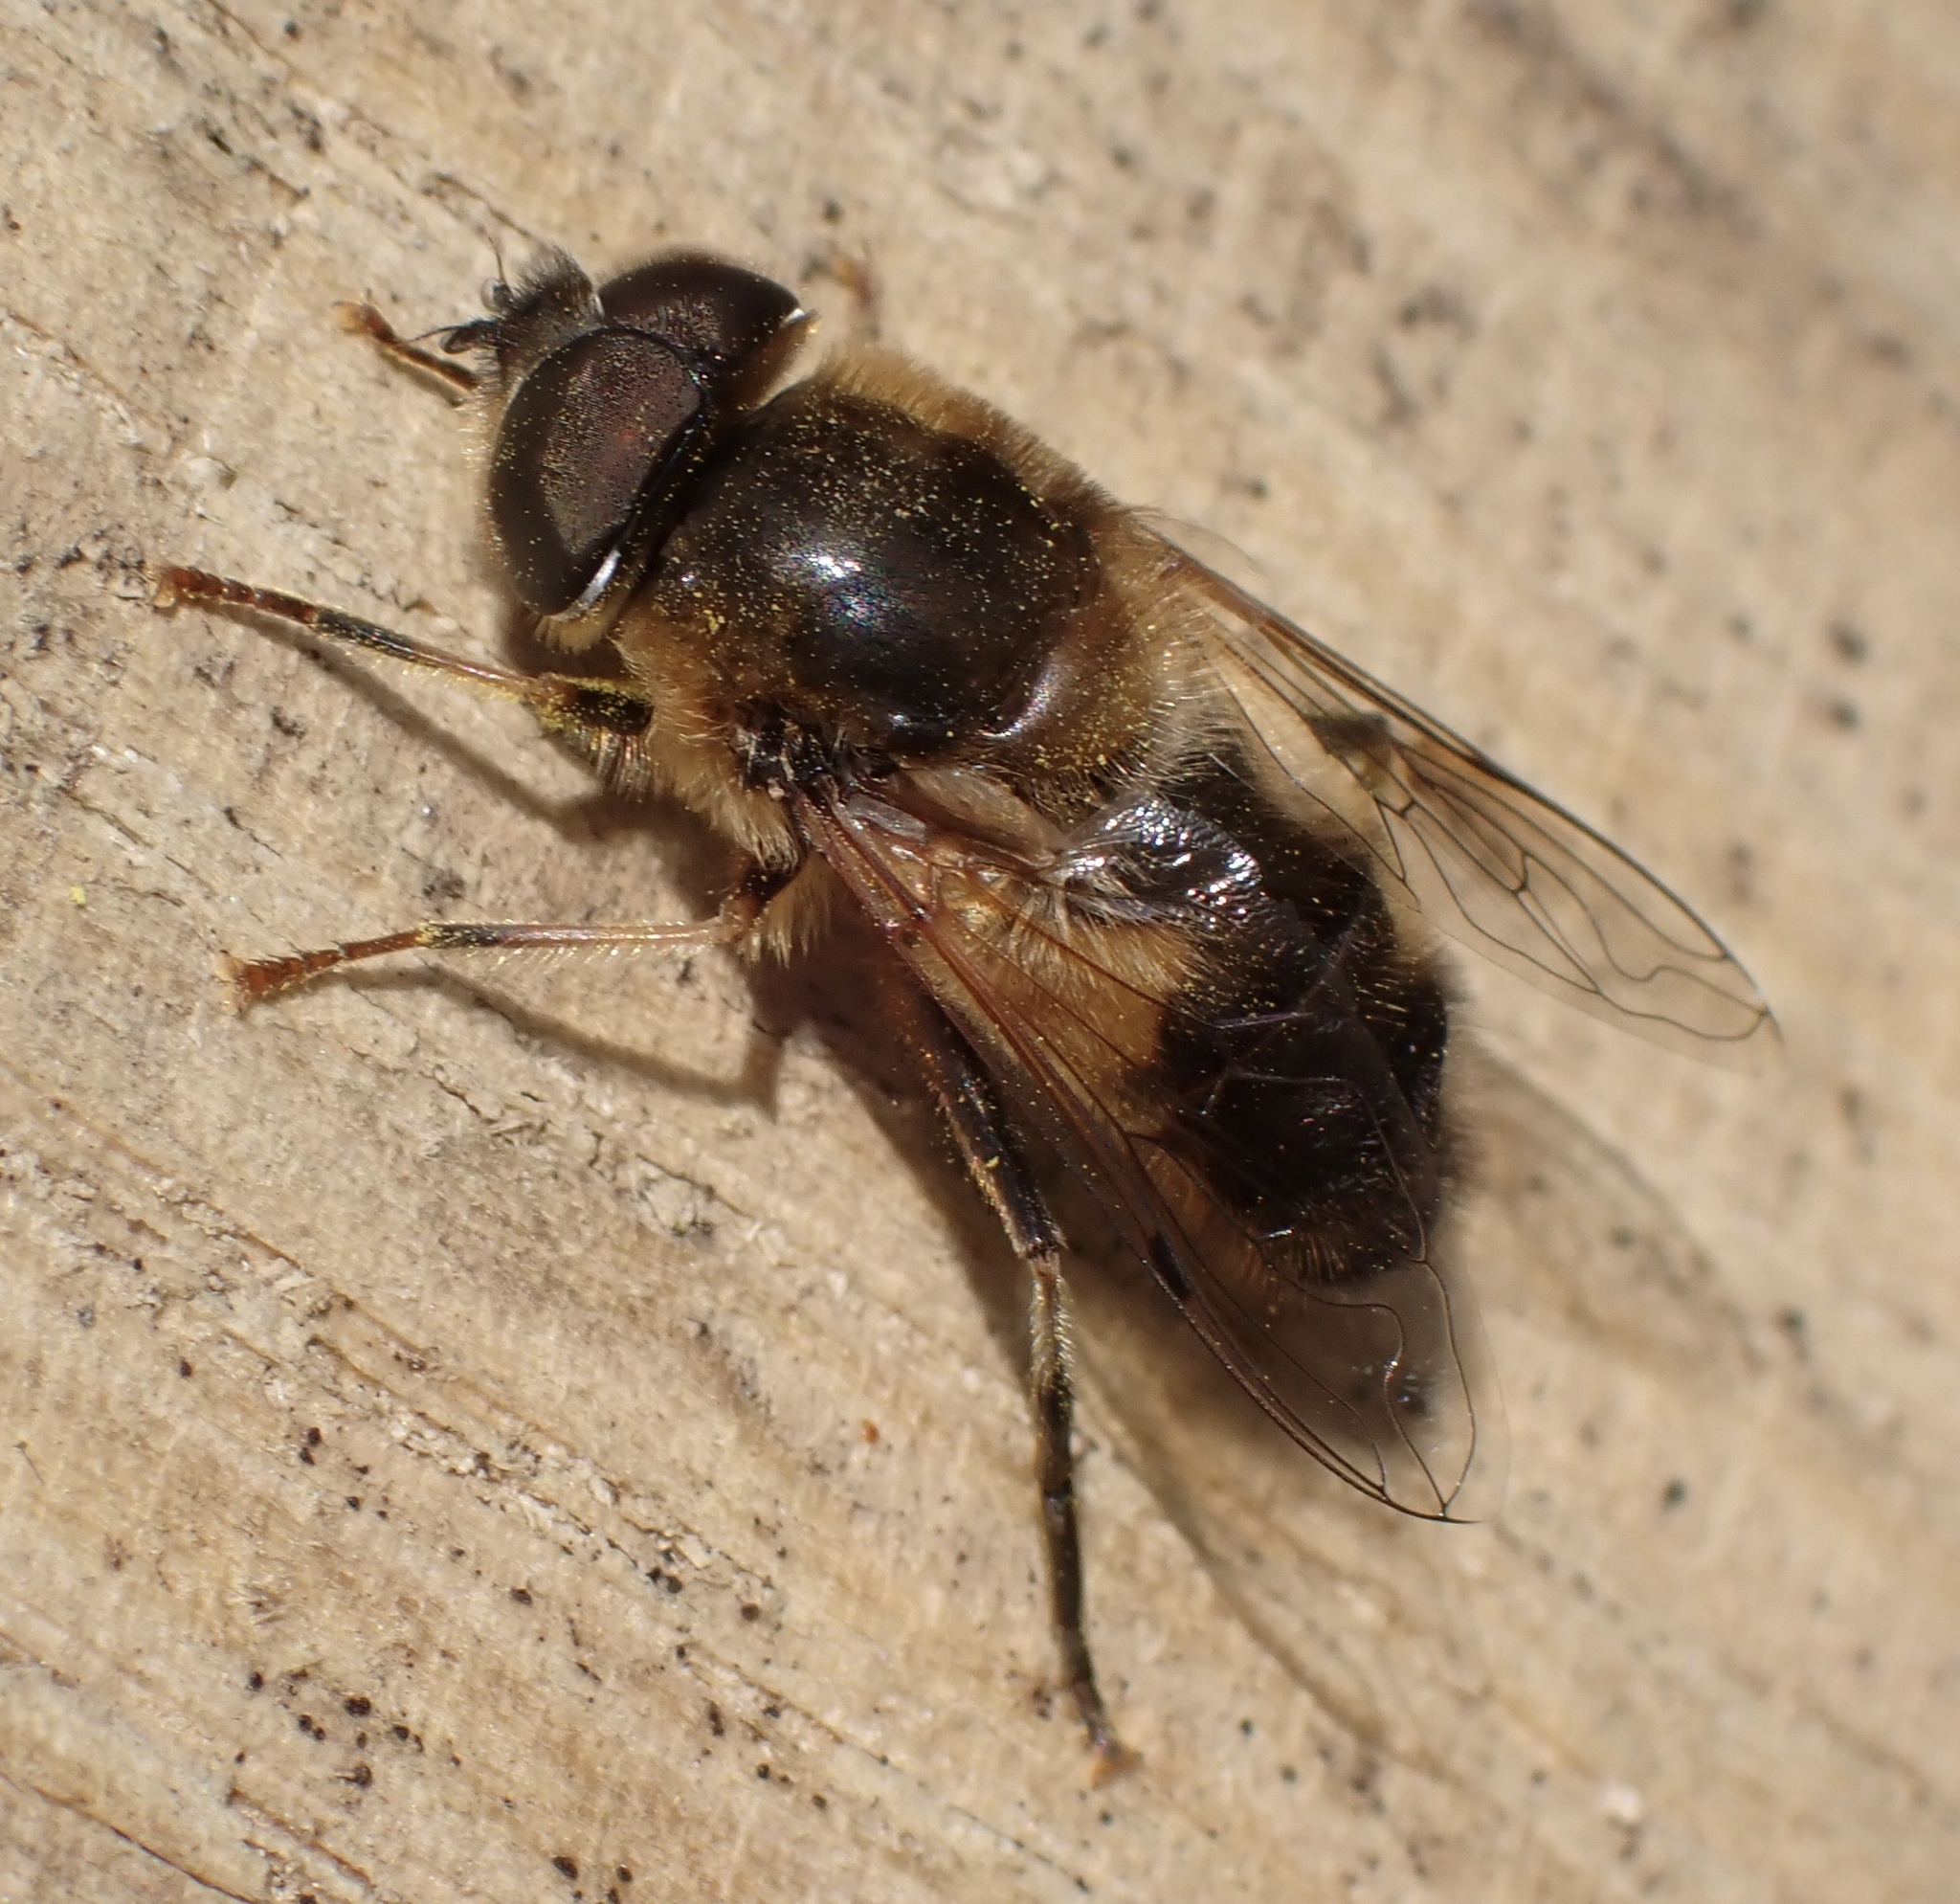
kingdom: Animalia
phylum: Arthropoda
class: Insecta
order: Diptera
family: Syrphidae
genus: Eristalis
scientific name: Eristalis pertinax
